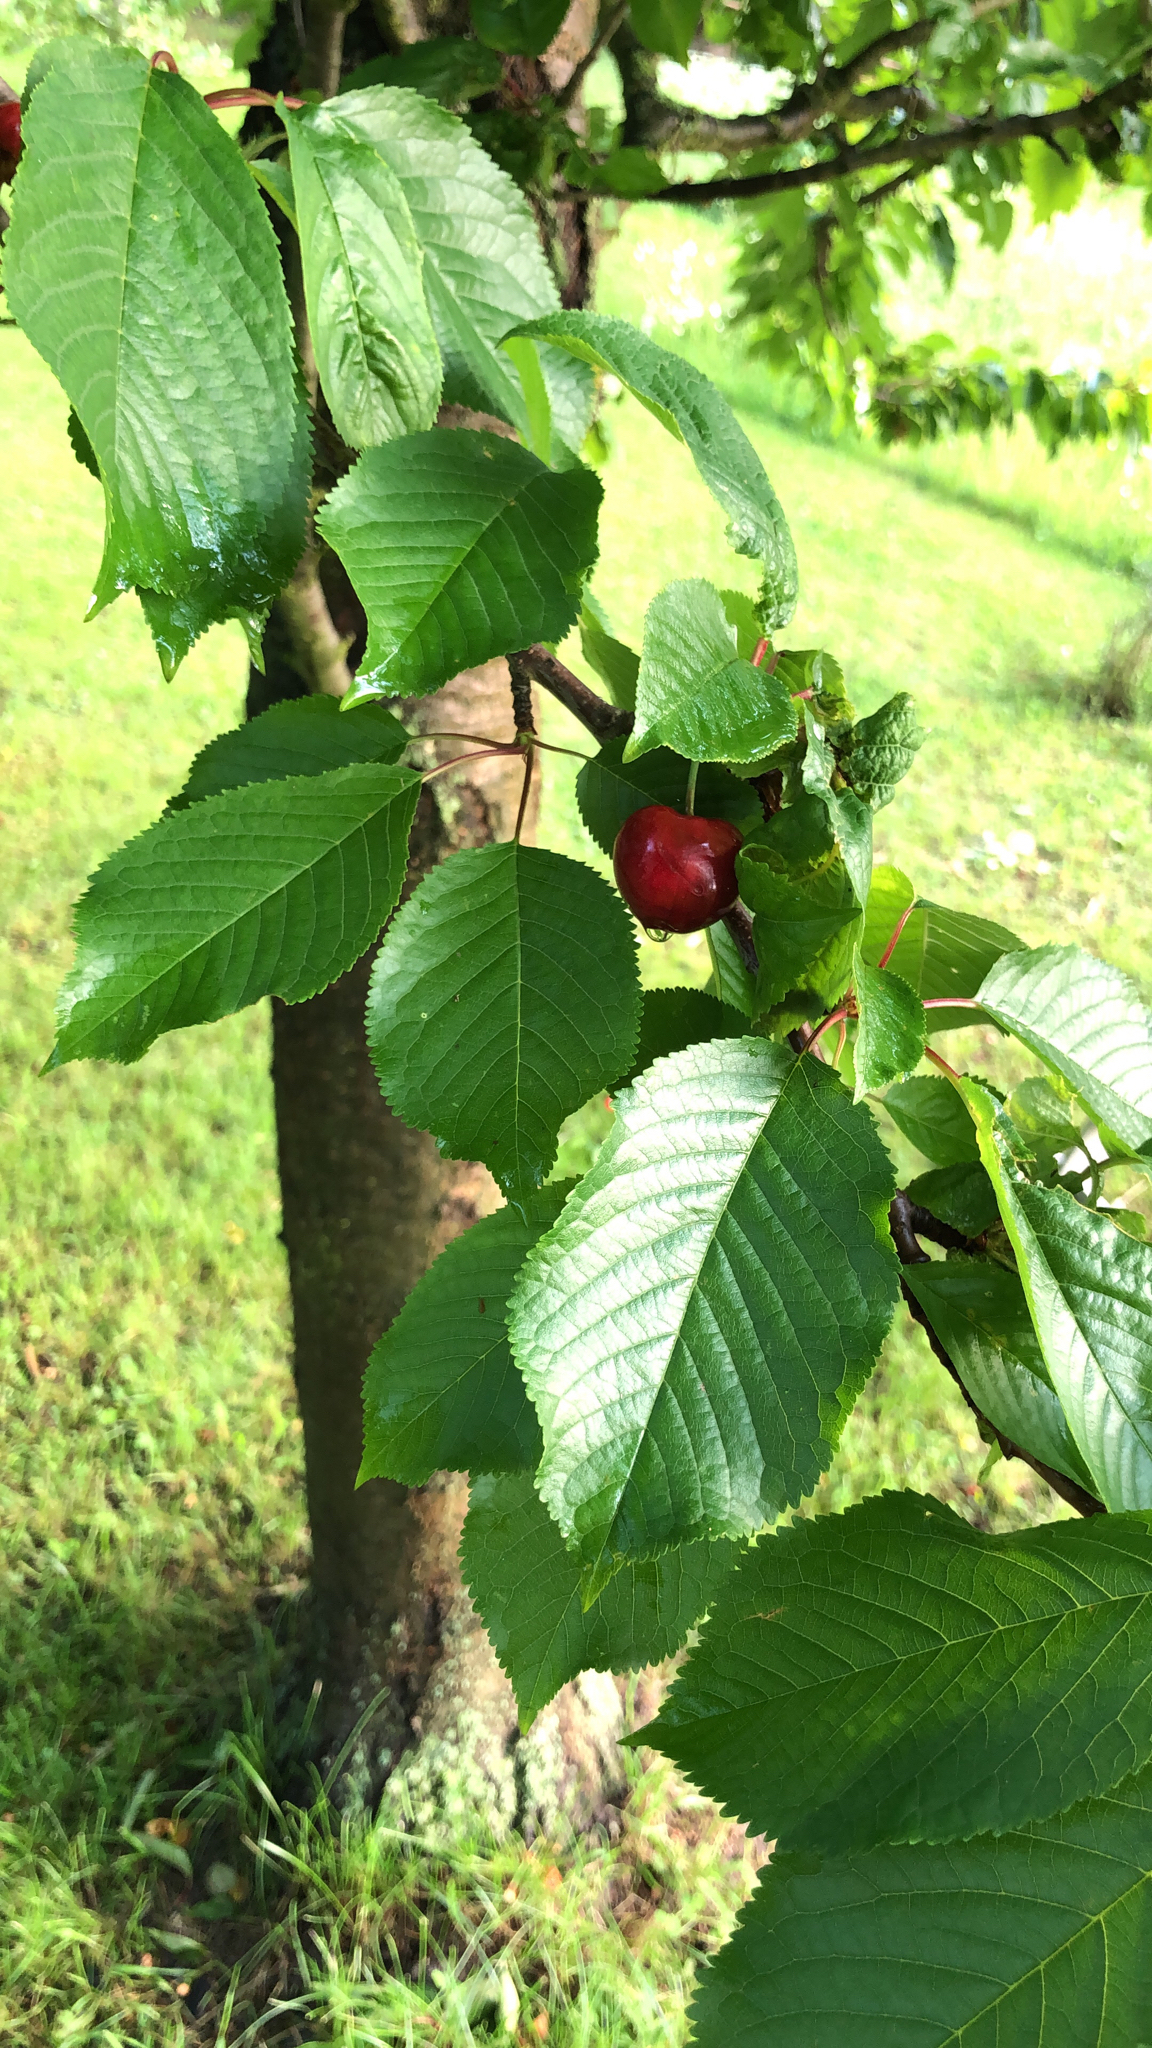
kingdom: Plantae
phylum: Tracheophyta
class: Magnoliopsida
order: Rosales
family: Rosaceae
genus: Prunus
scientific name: Prunus avium
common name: Sweet cherry
